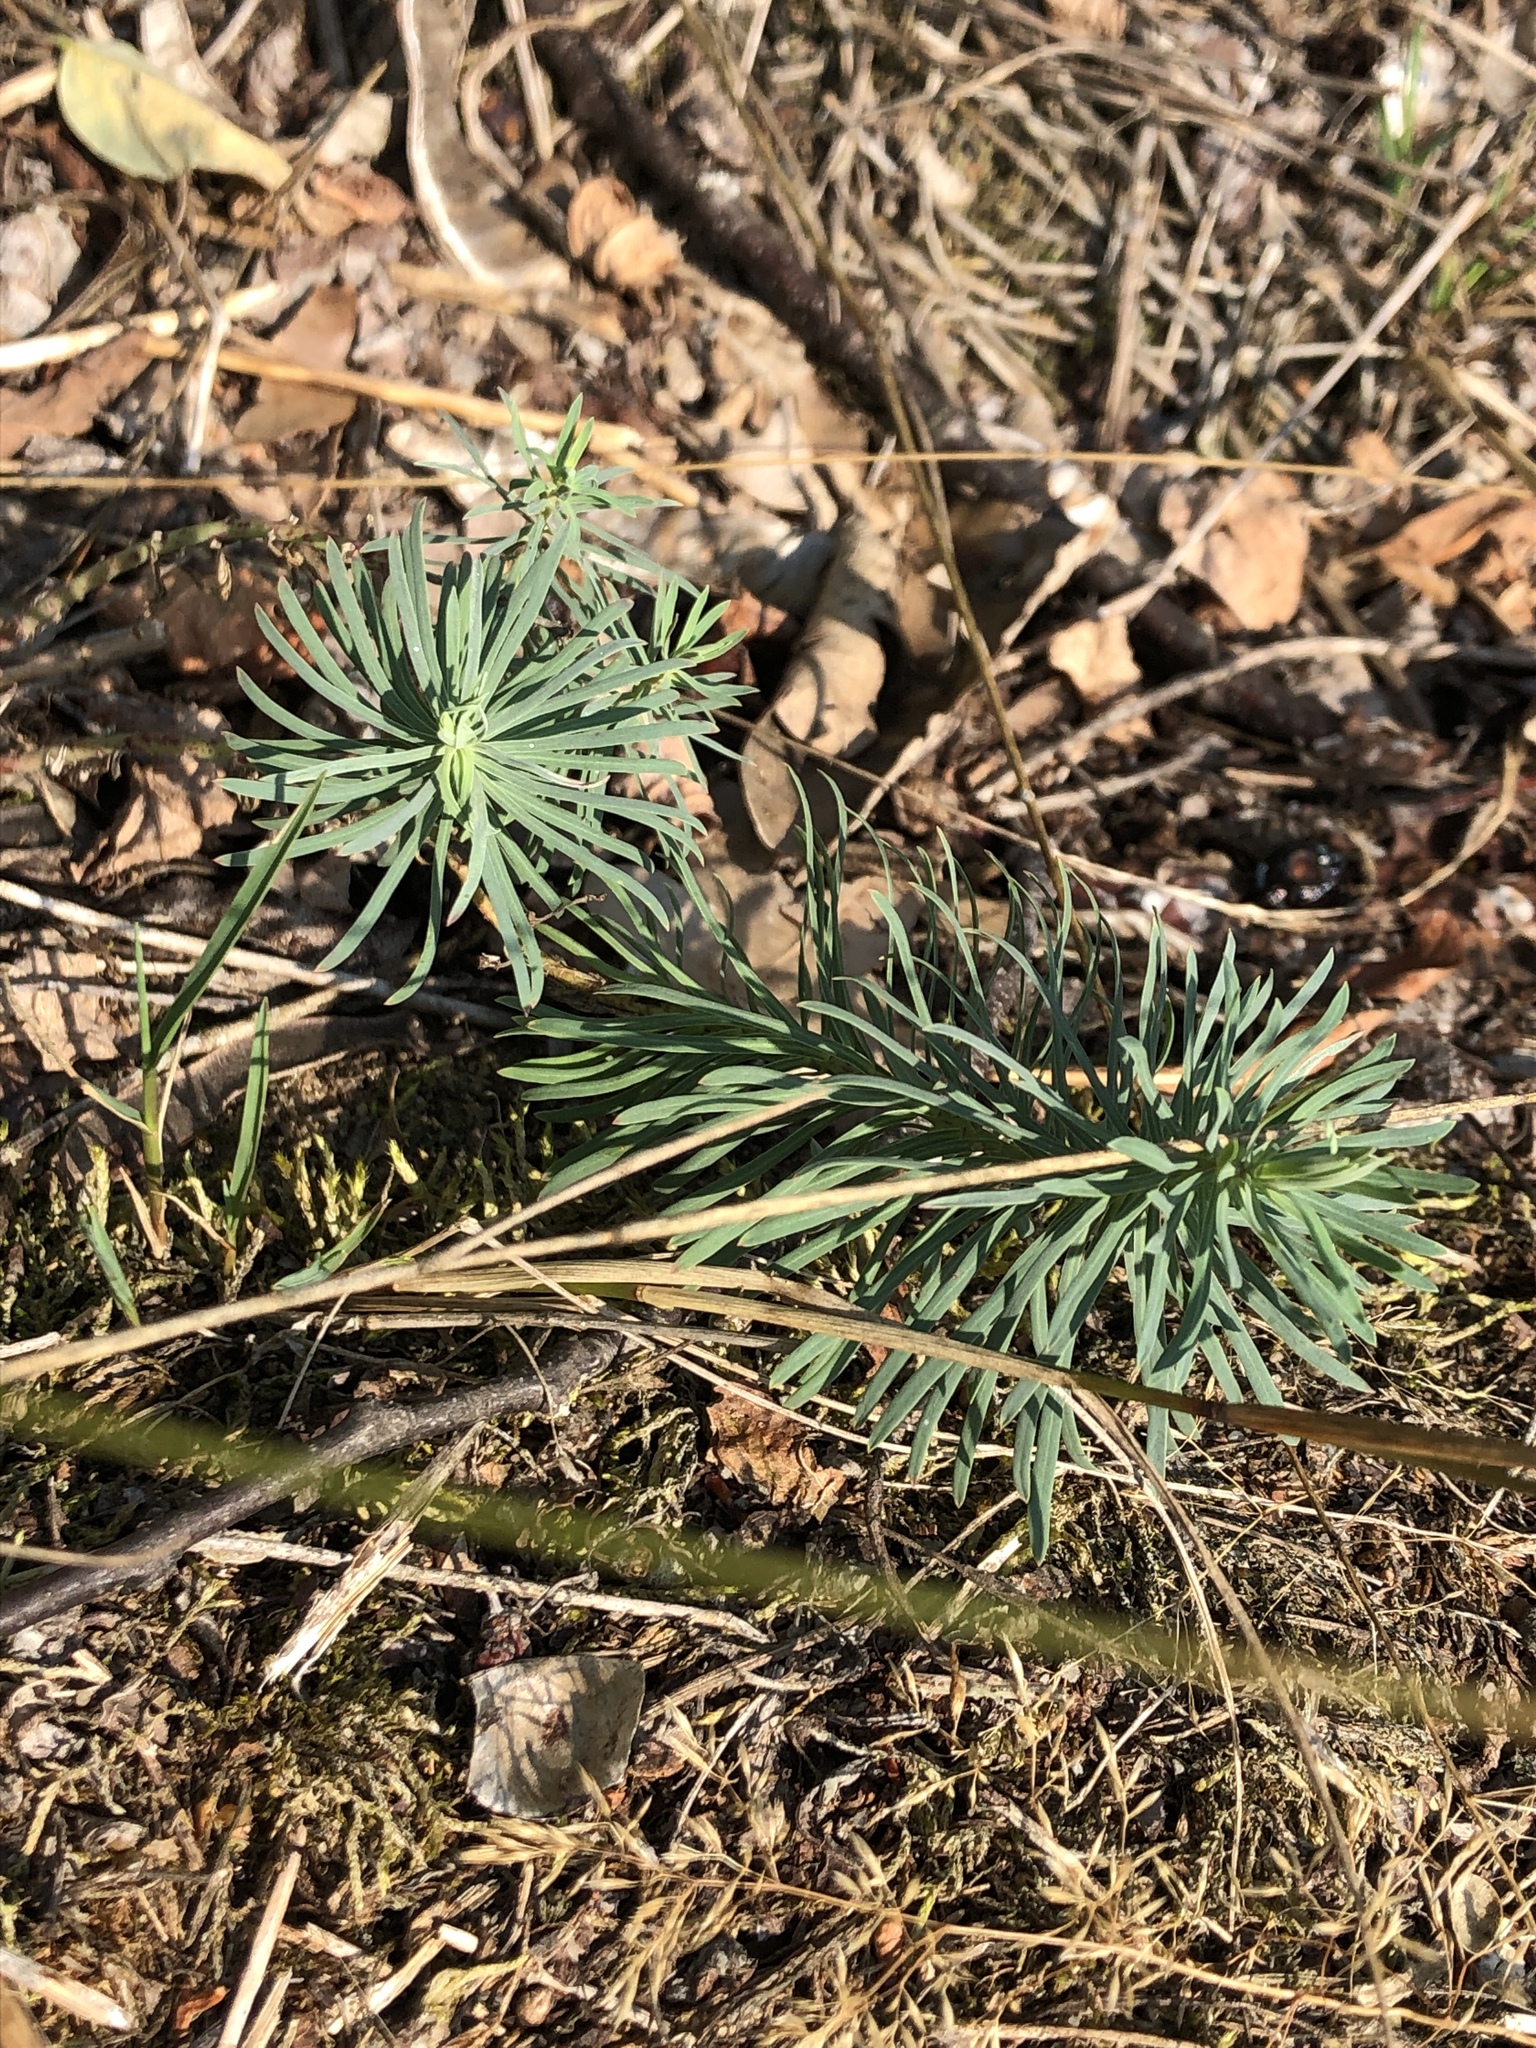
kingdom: Plantae
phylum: Tracheophyta
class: Magnoliopsida
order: Malpighiales
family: Euphorbiaceae
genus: Euphorbia
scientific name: Euphorbia cyparissias
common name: Cypress spurge
